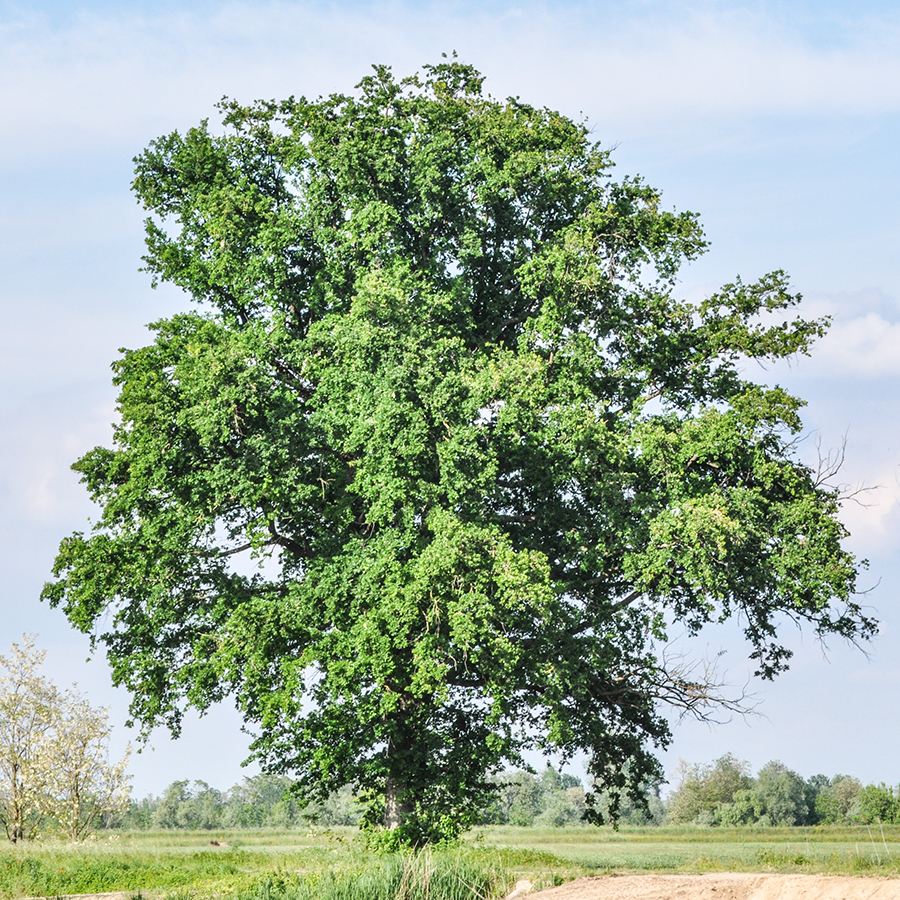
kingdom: Plantae
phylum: Tracheophyta
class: Magnoliopsida
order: Fagales
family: Fagaceae
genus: Quercus
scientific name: Quercus robur
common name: Pedunculate oak
